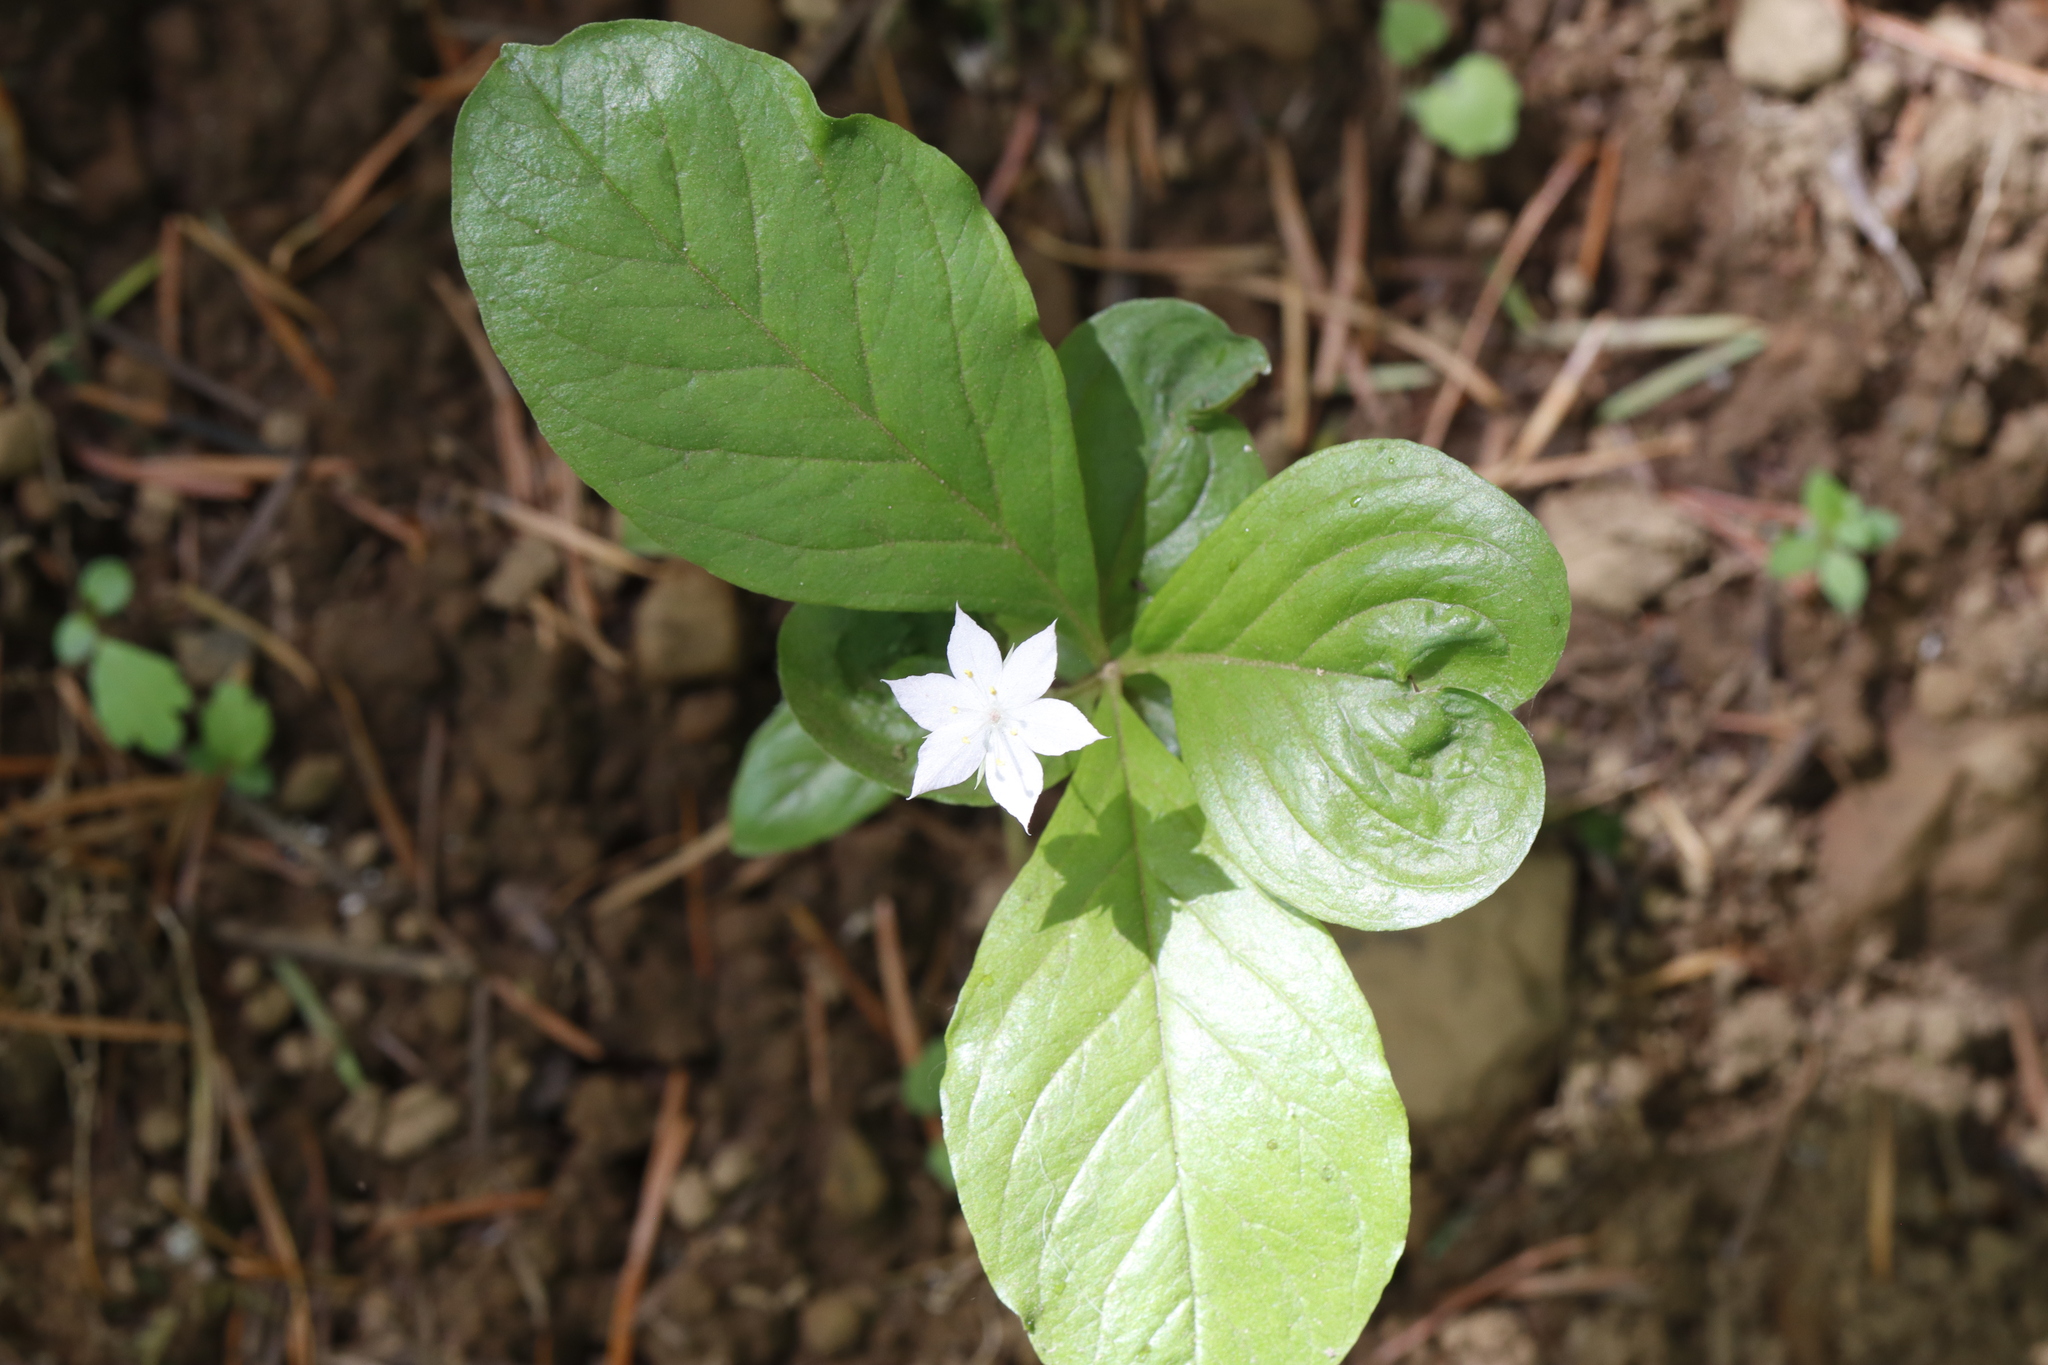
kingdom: Plantae
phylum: Tracheophyta
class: Magnoliopsida
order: Ericales
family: Primulaceae
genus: Lysimachia
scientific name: Lysimachia latifolia
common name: Pacific starflower
